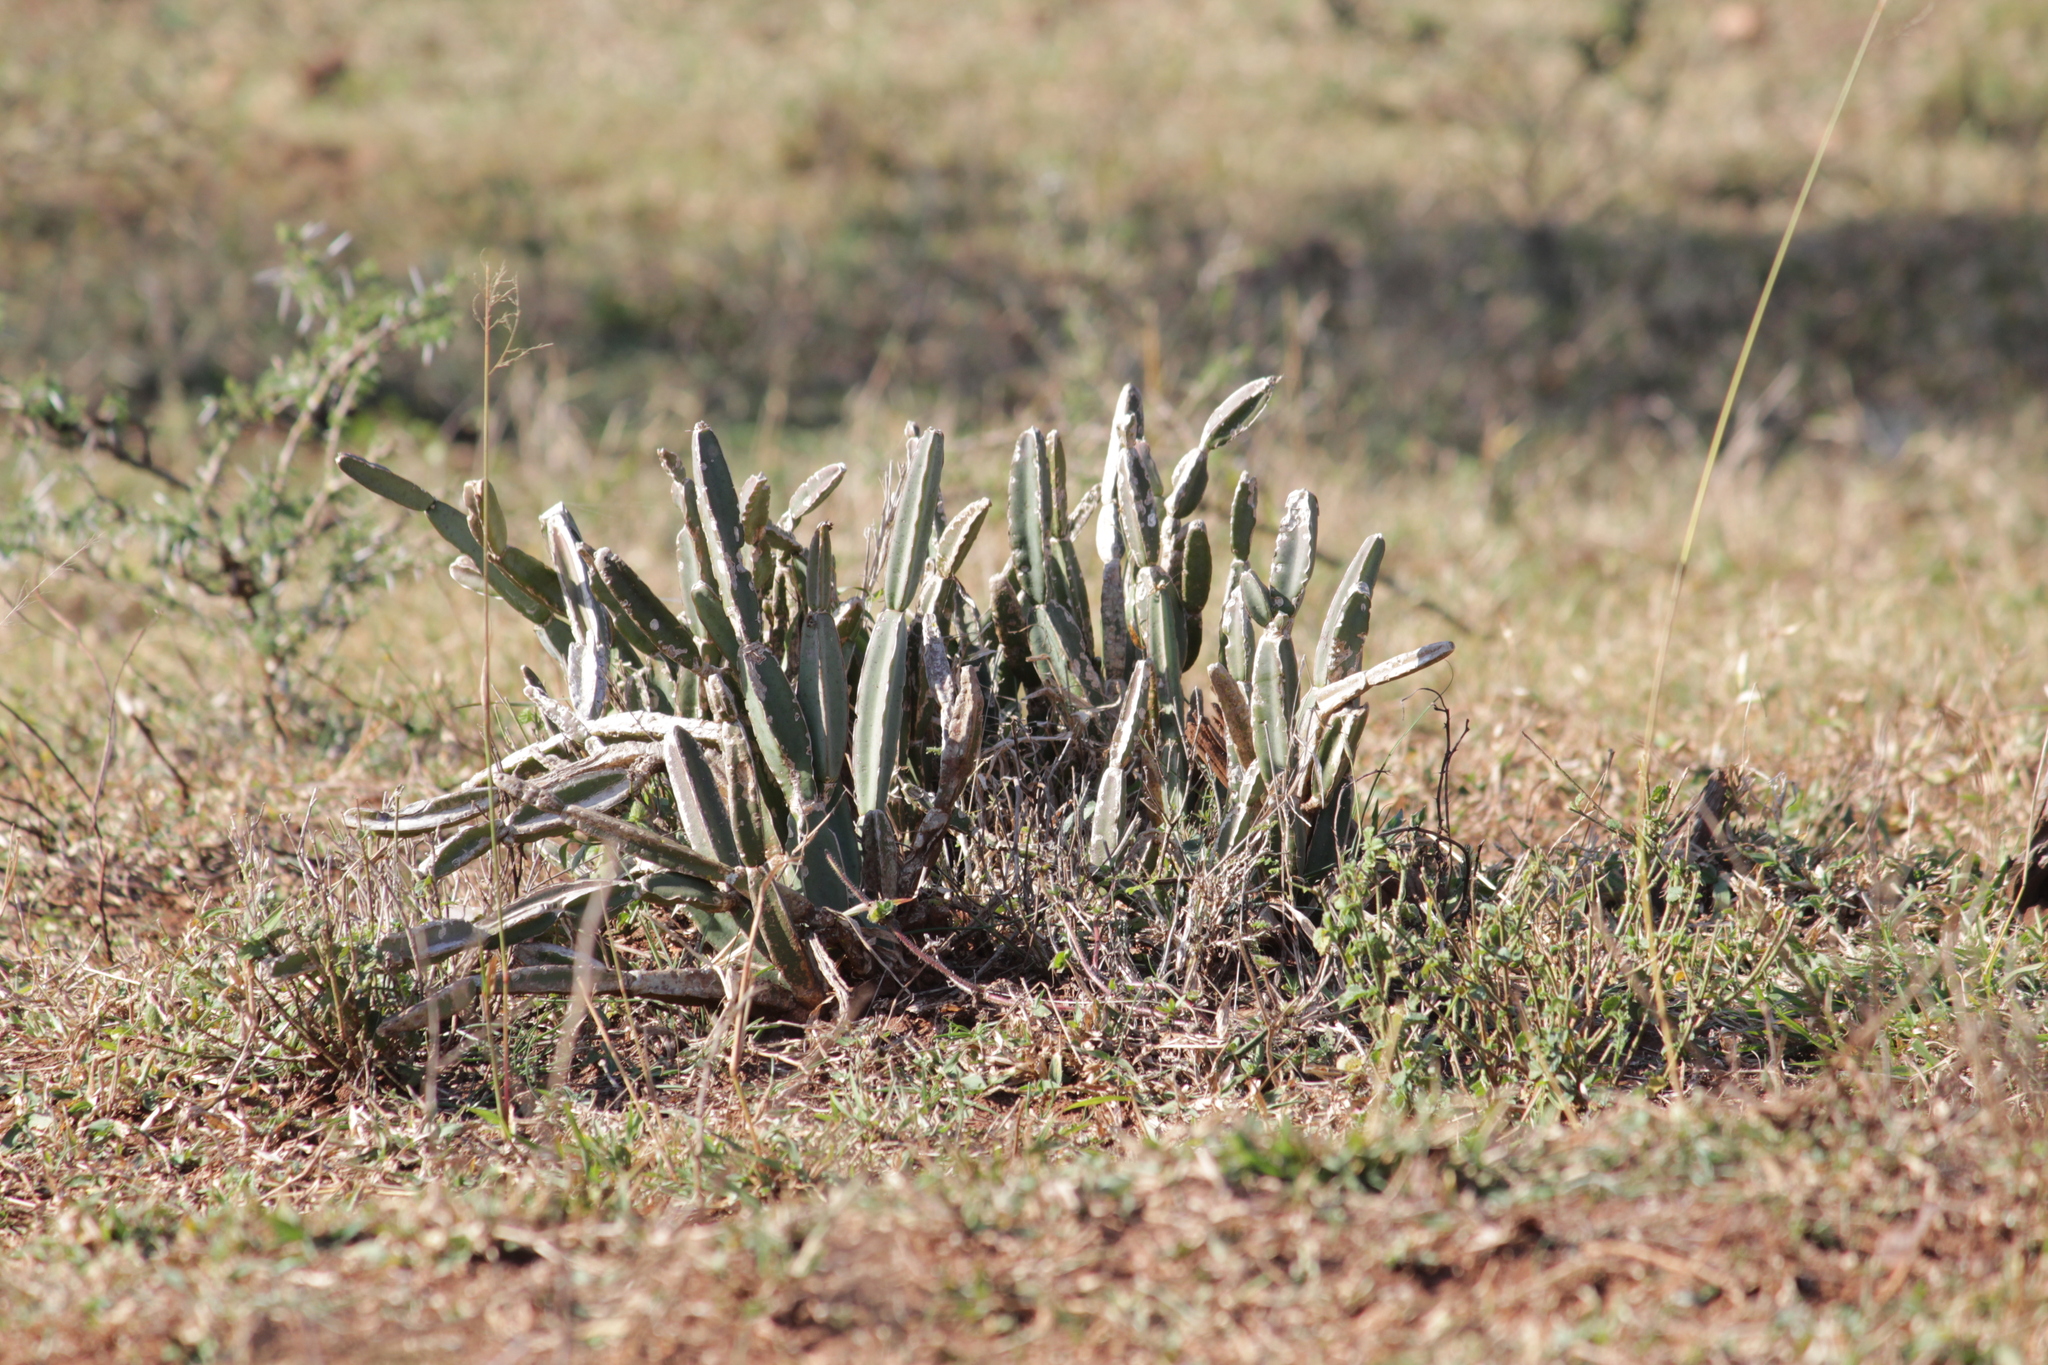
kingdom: Plantae
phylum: Tracheophyta
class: Magnoliopsida
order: Vitales
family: Vitaceae
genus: Cissus
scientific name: Cissus quadrangularis
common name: Veldt-grape
